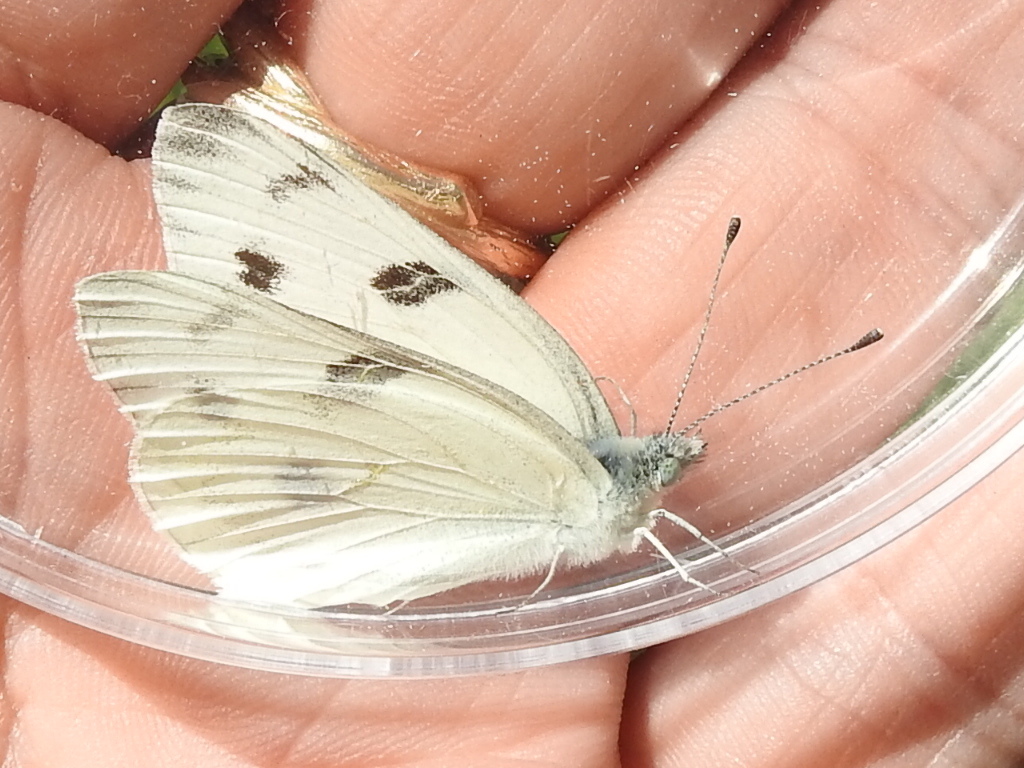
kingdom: Animalia
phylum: Arthropoda
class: Insecta
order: Lepidoptera
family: Pieridae
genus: Pontia
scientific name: Pontia protodice
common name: Checkered white
